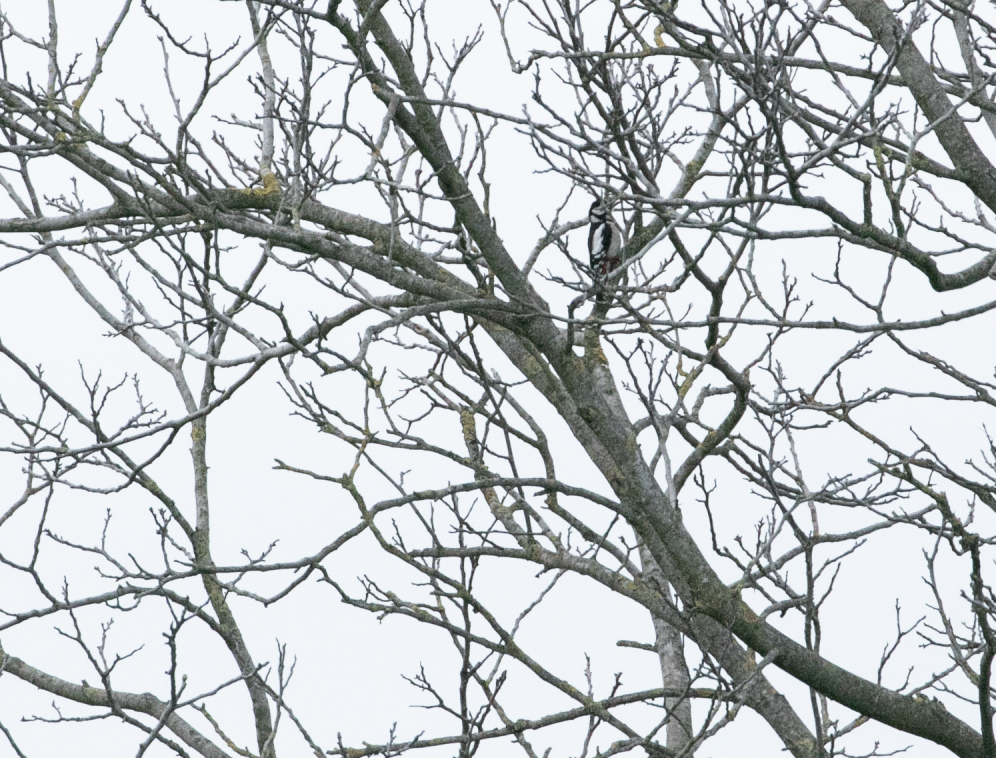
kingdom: Animalia
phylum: Chordata
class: Aves
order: Piciformes
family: Picidae
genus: Dendrocopos
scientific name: Dendrocopos major
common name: Great spotted woodpecker
